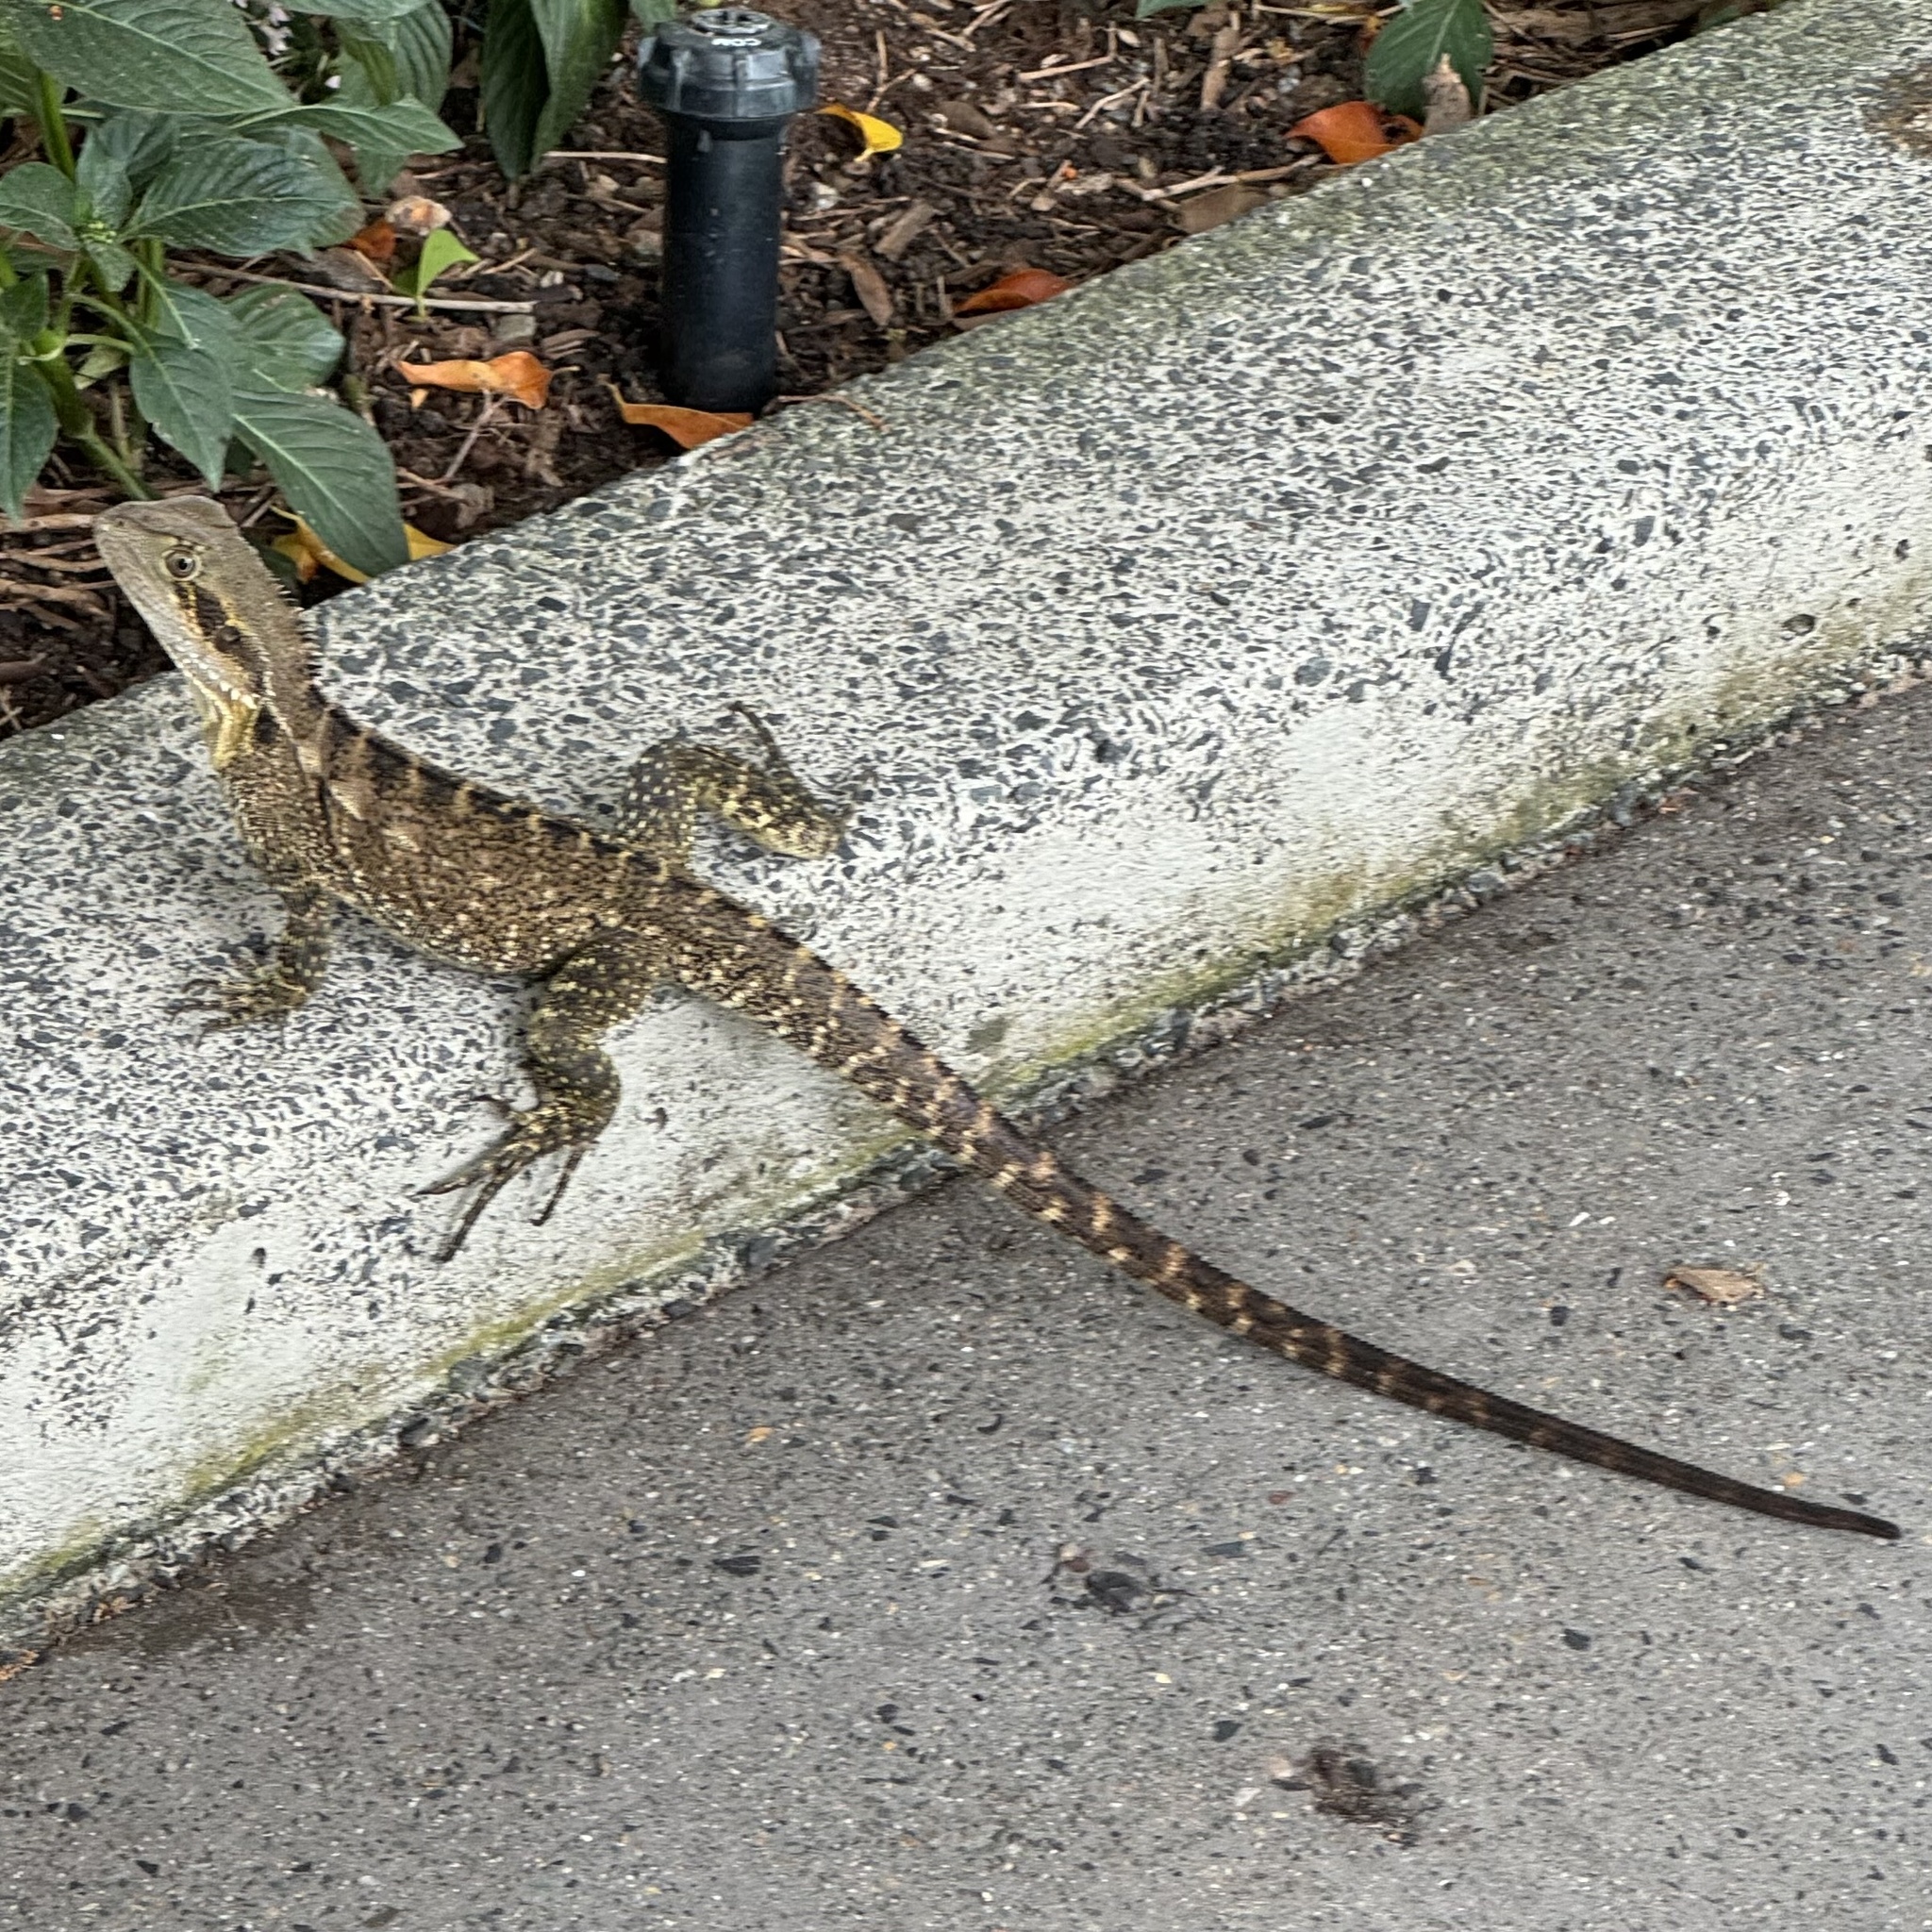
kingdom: Animalia
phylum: Chordata
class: Squamata
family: Agamidae
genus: Intellagama
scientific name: Intellagama lesueurii
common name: Eastern water dragon
